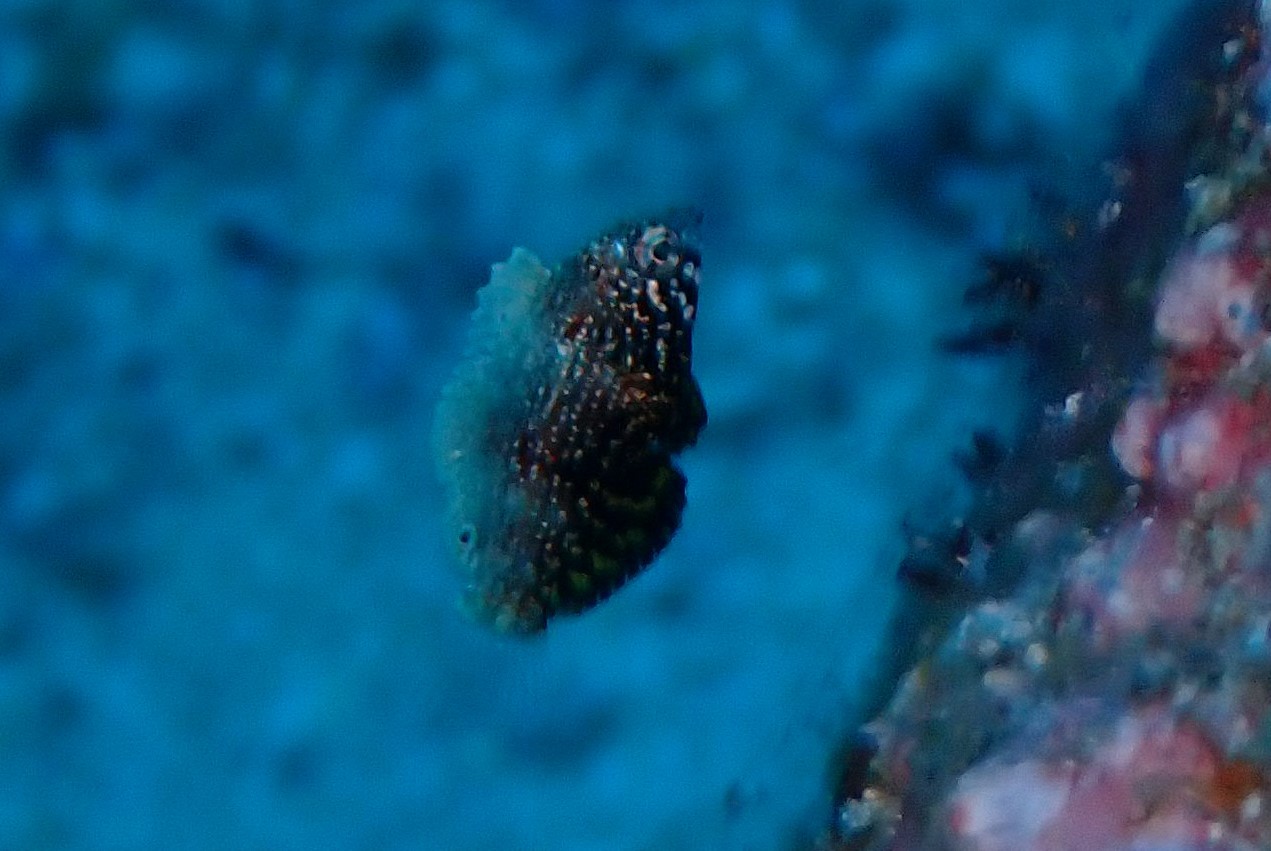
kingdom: Animalia
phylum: Chordata
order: Perciformes
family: Labridae
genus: Macropharyngodon
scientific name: Macropharyngodon negrosensis
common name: Black leopard wrasse
